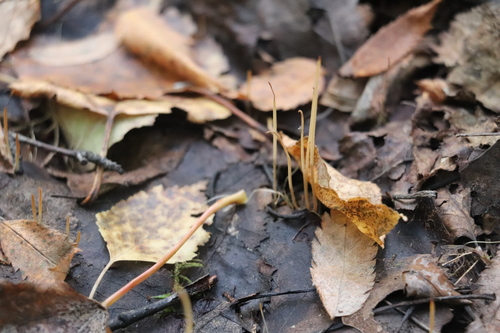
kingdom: Fungi
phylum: Basidiomycota
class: Agaricomycetes
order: Agaricales
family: Typhulaceae
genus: Typhula
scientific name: Typhula juncea
